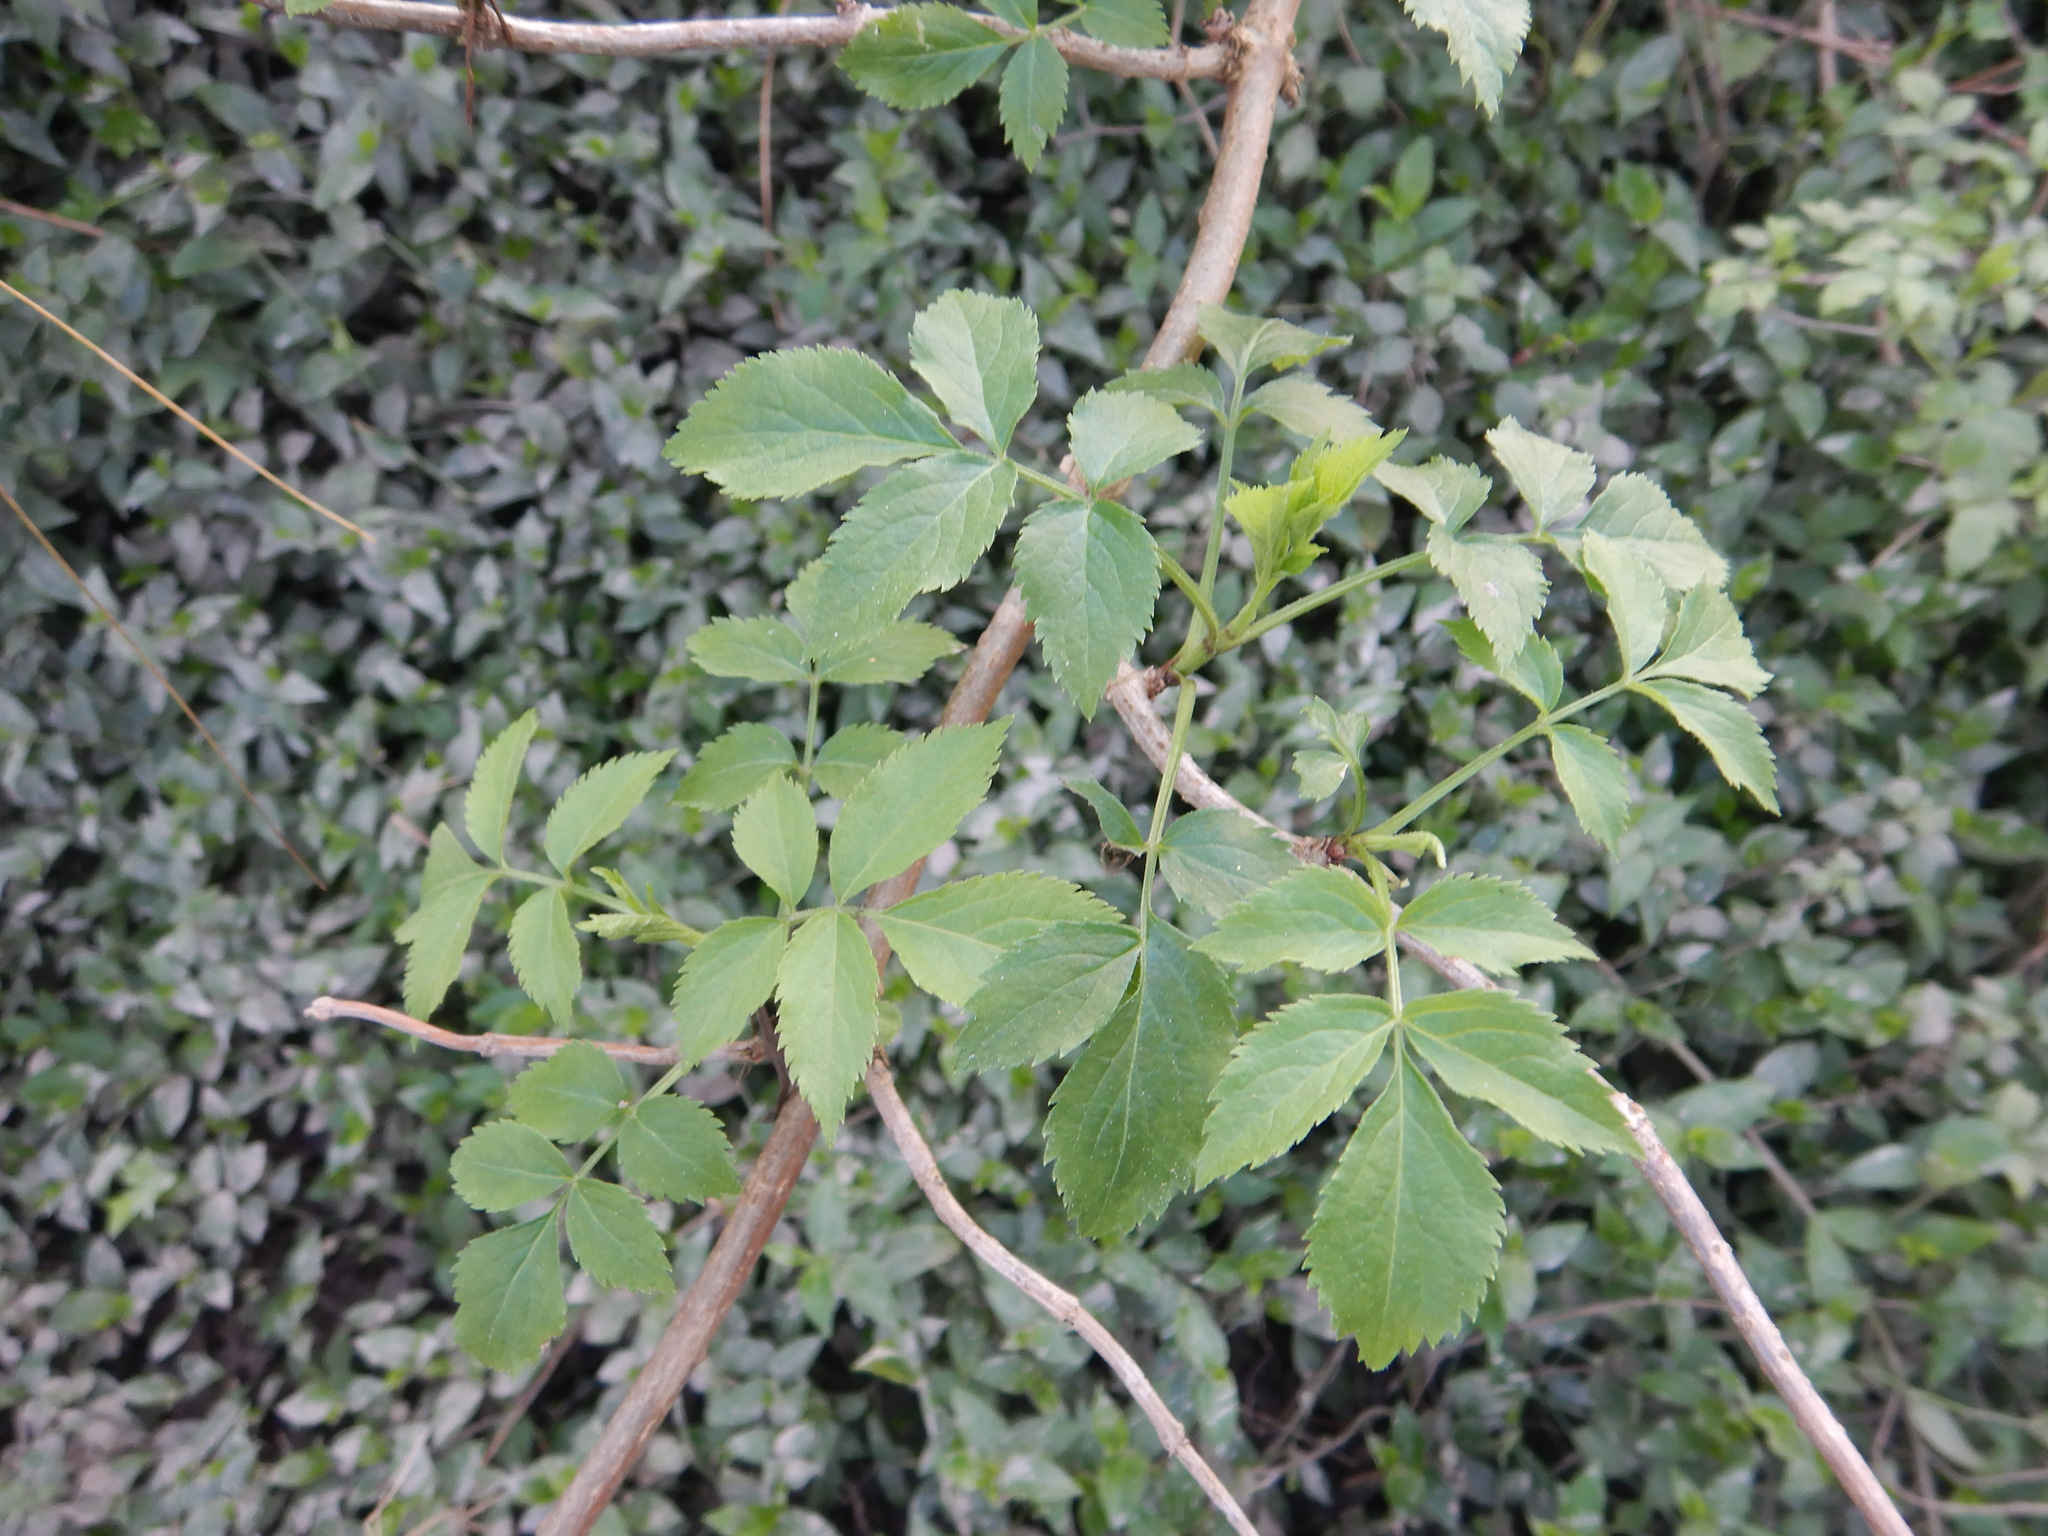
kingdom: Plantae
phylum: Tracheophyta
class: Magnoliopsida
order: Dipsacales
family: Viburnaceae
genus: Sambucus
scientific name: Sambucus nigra
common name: Elder
